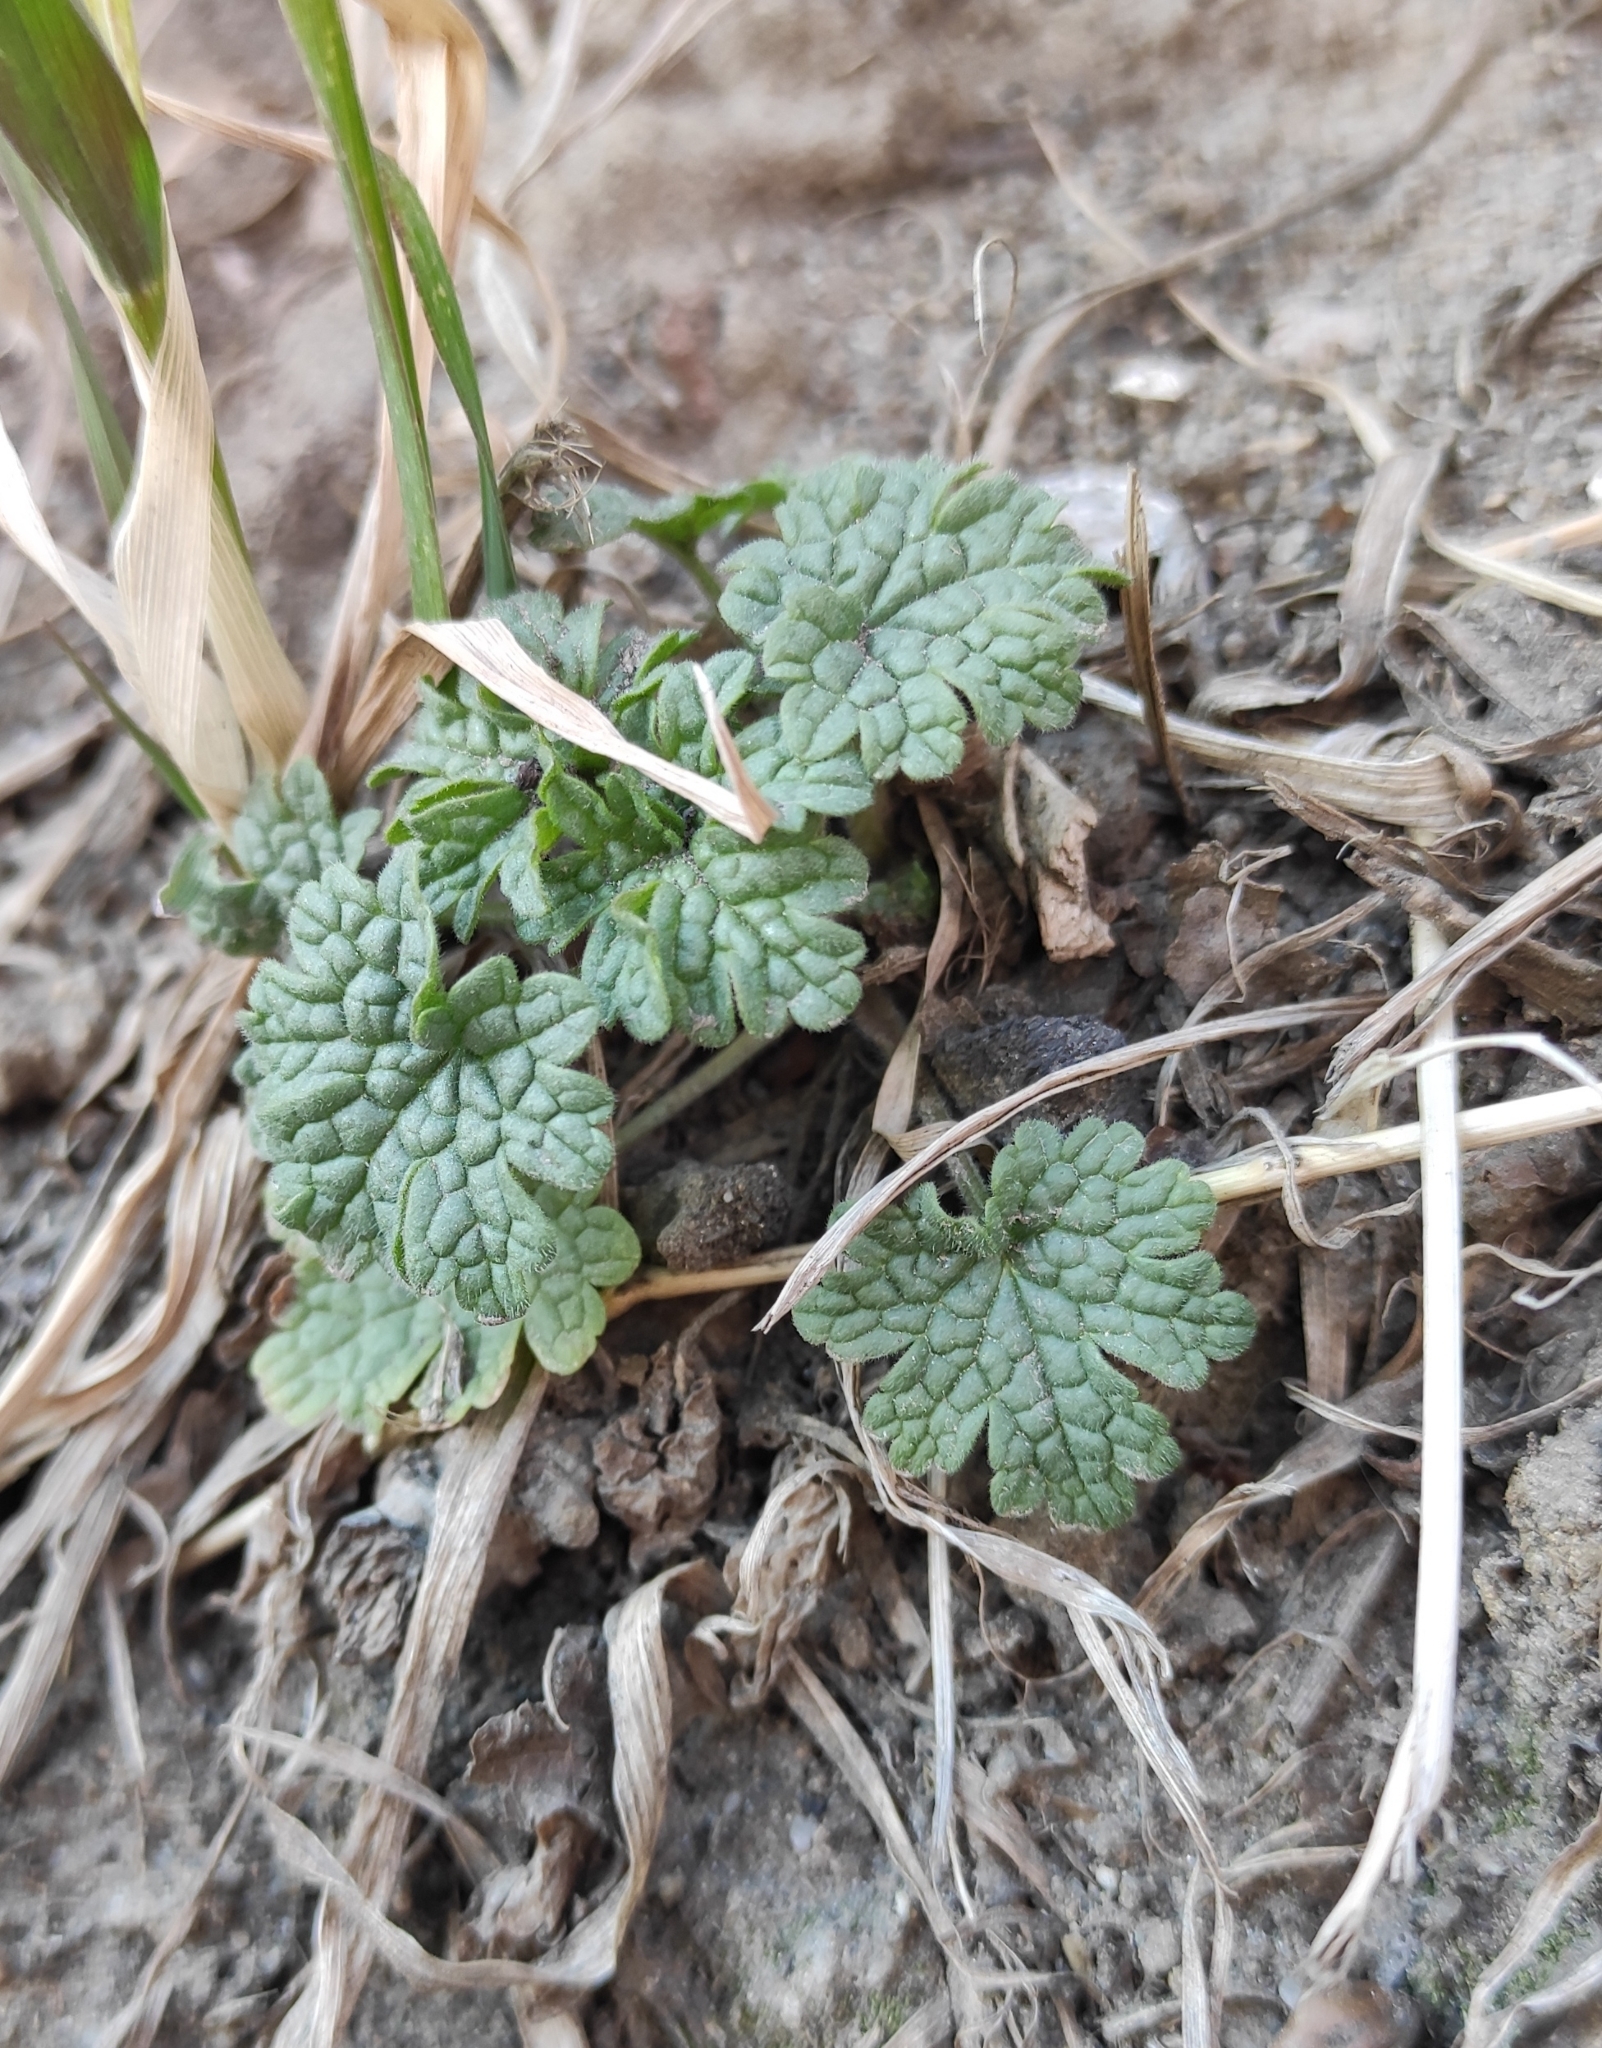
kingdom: Plantae
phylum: Tracheophyta
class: Magnoliopsida
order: Lamiales
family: Lamiaceae
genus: Leonurus
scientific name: Leonurus quinquelobatus
